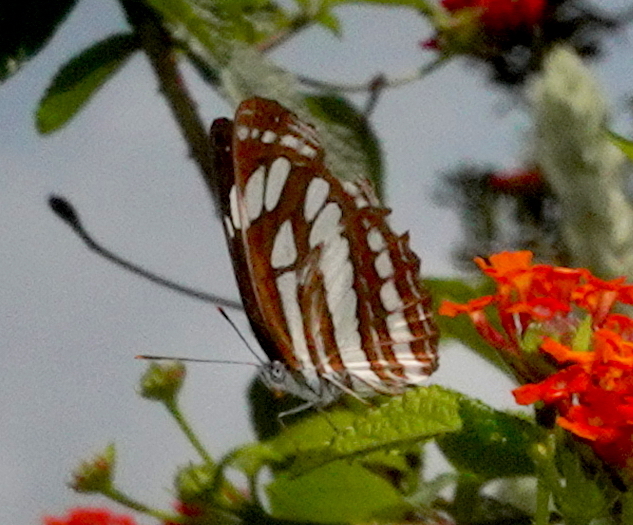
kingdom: Animalia
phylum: Arthropoda
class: Insecta
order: Lepidoptera
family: Nymphalidae
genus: Neptis
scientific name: Neptis hylas
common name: Common sailer
